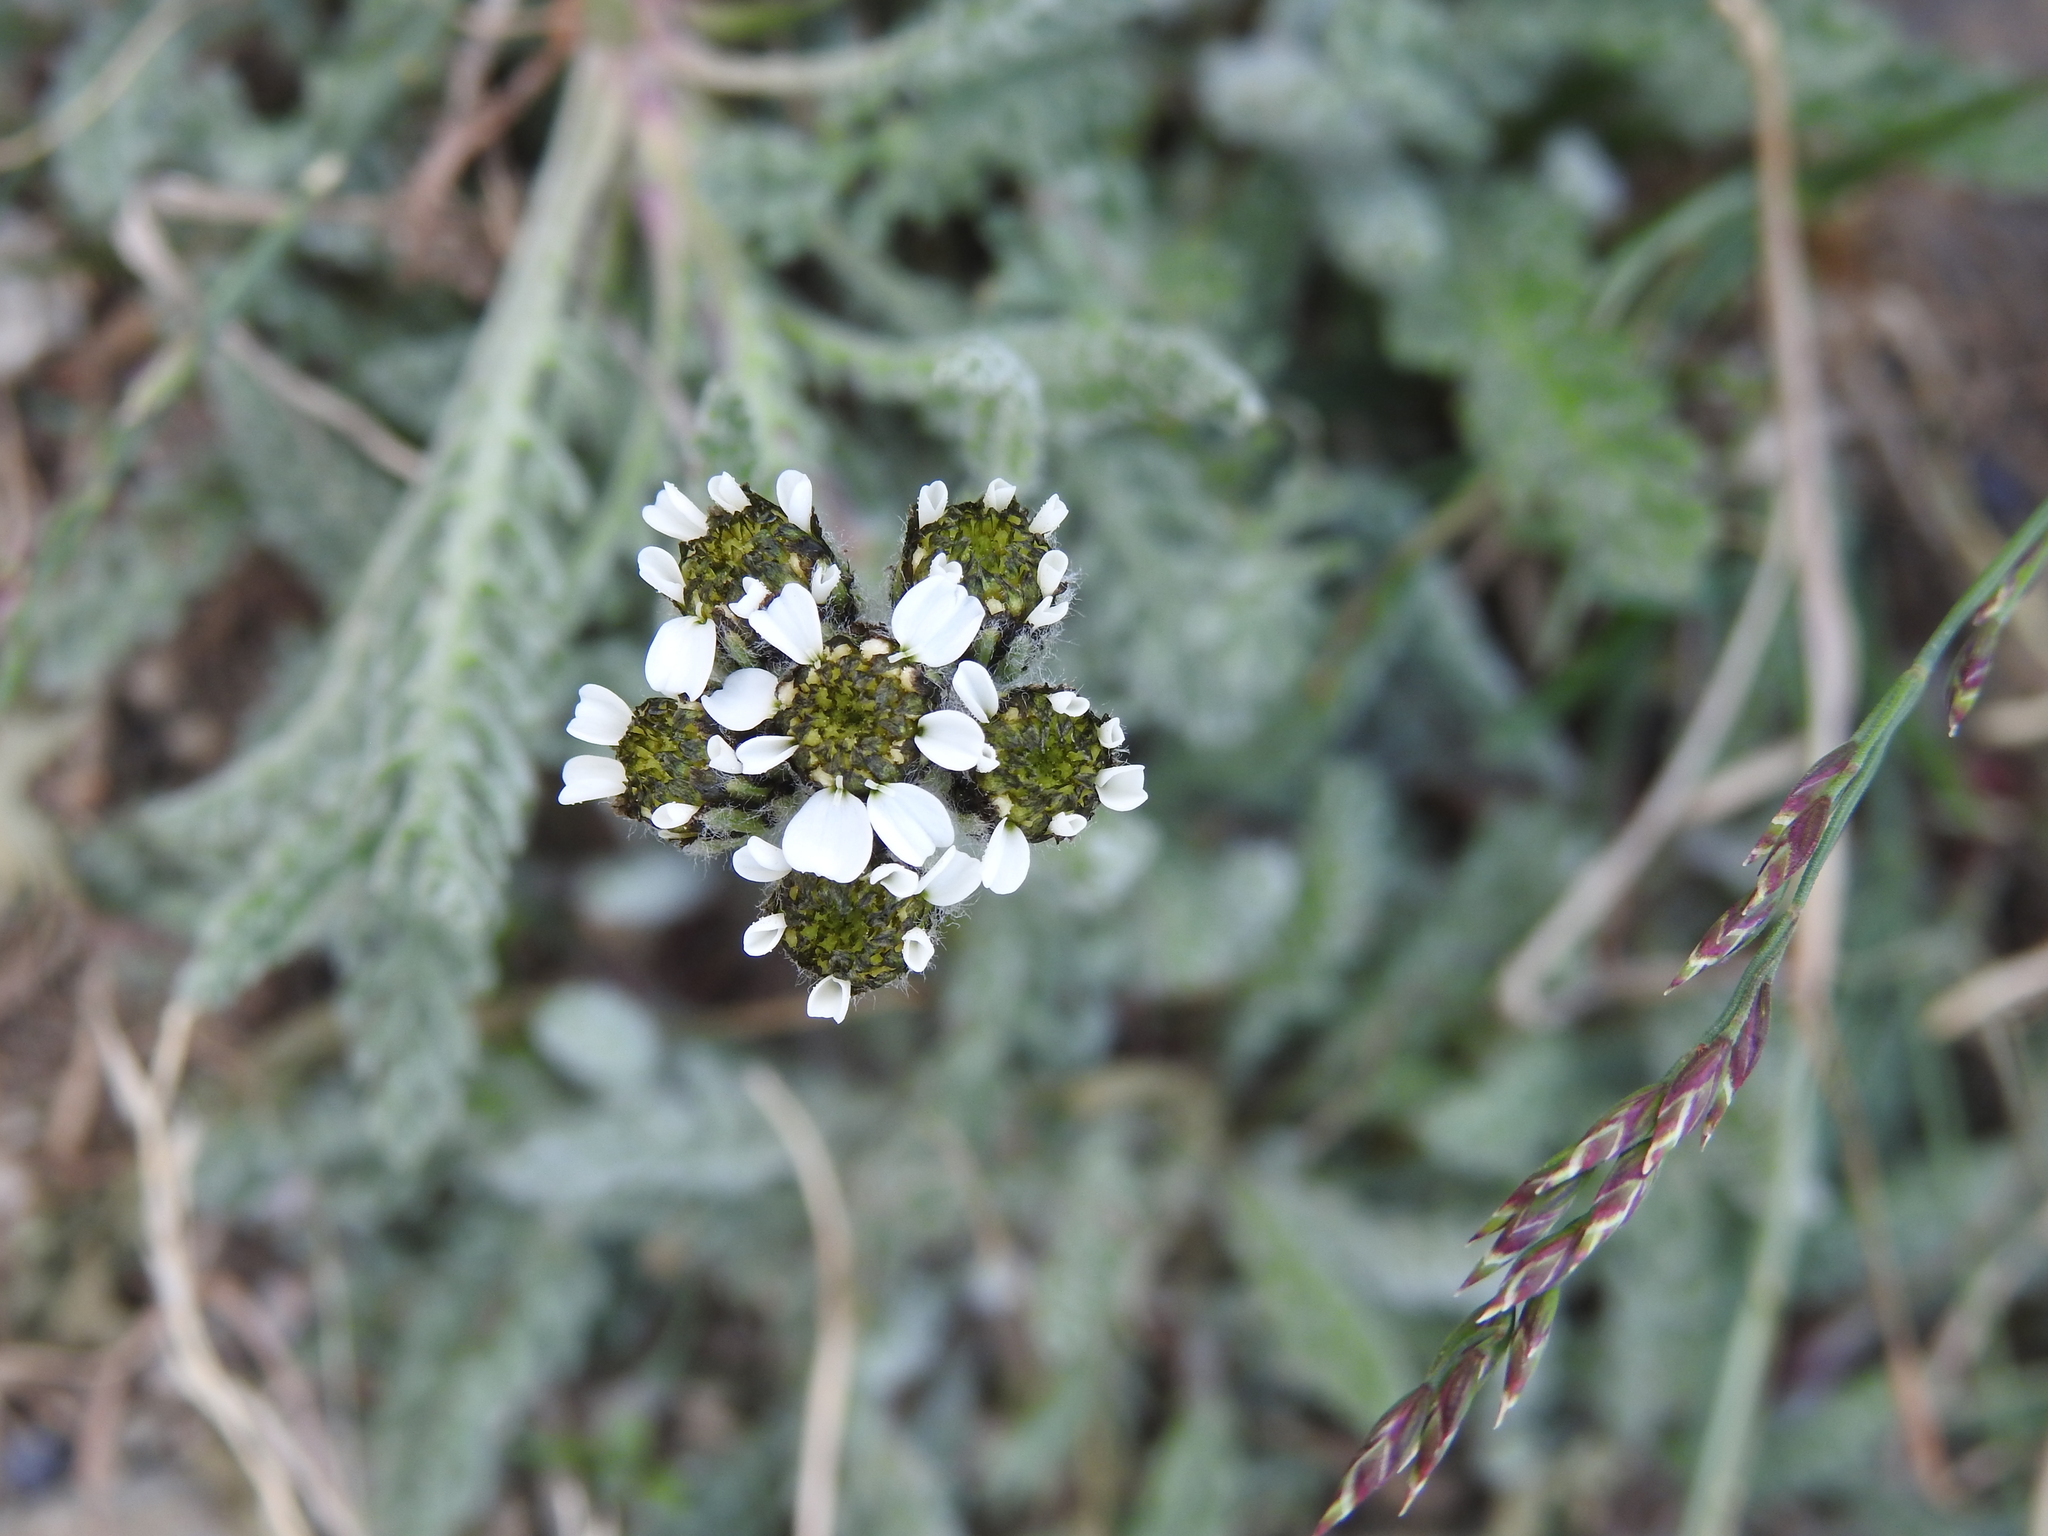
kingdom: Plantae
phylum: Tracheophyta
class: Magnoliopsida
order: Asterales
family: Asteraceae
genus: Achillea
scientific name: Achillea nana
